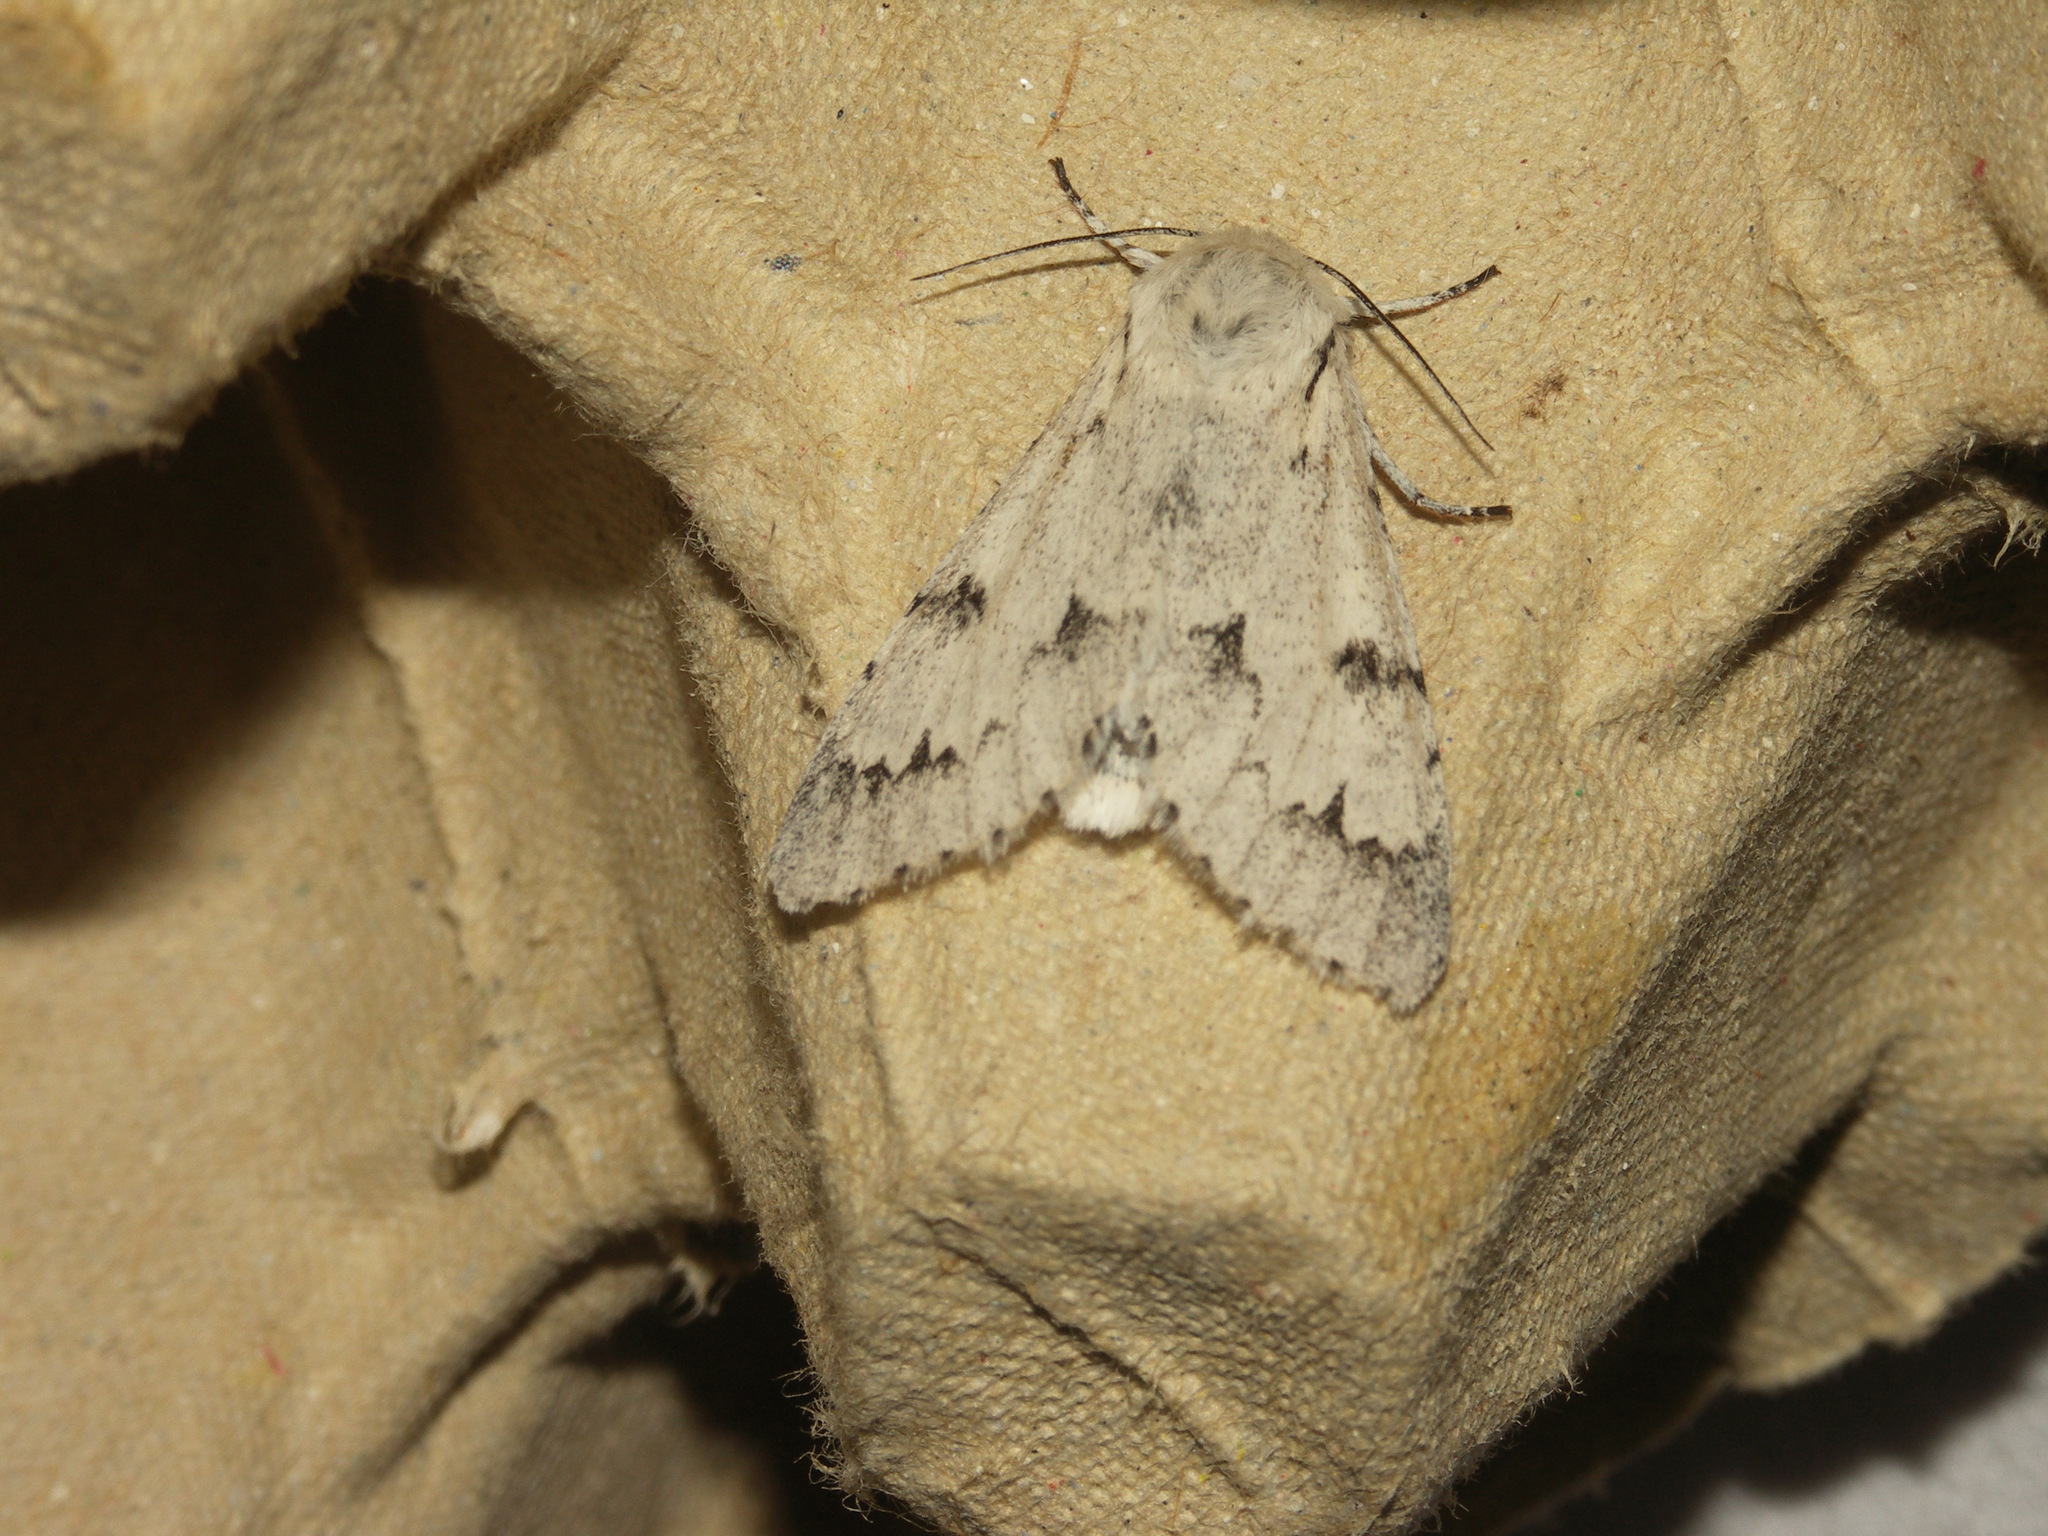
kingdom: Animalia
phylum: Arthropoda
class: Insecta
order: Lepidoptera
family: Noctuidae
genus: Acronicta
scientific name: Acronicta leporina
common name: Miller
